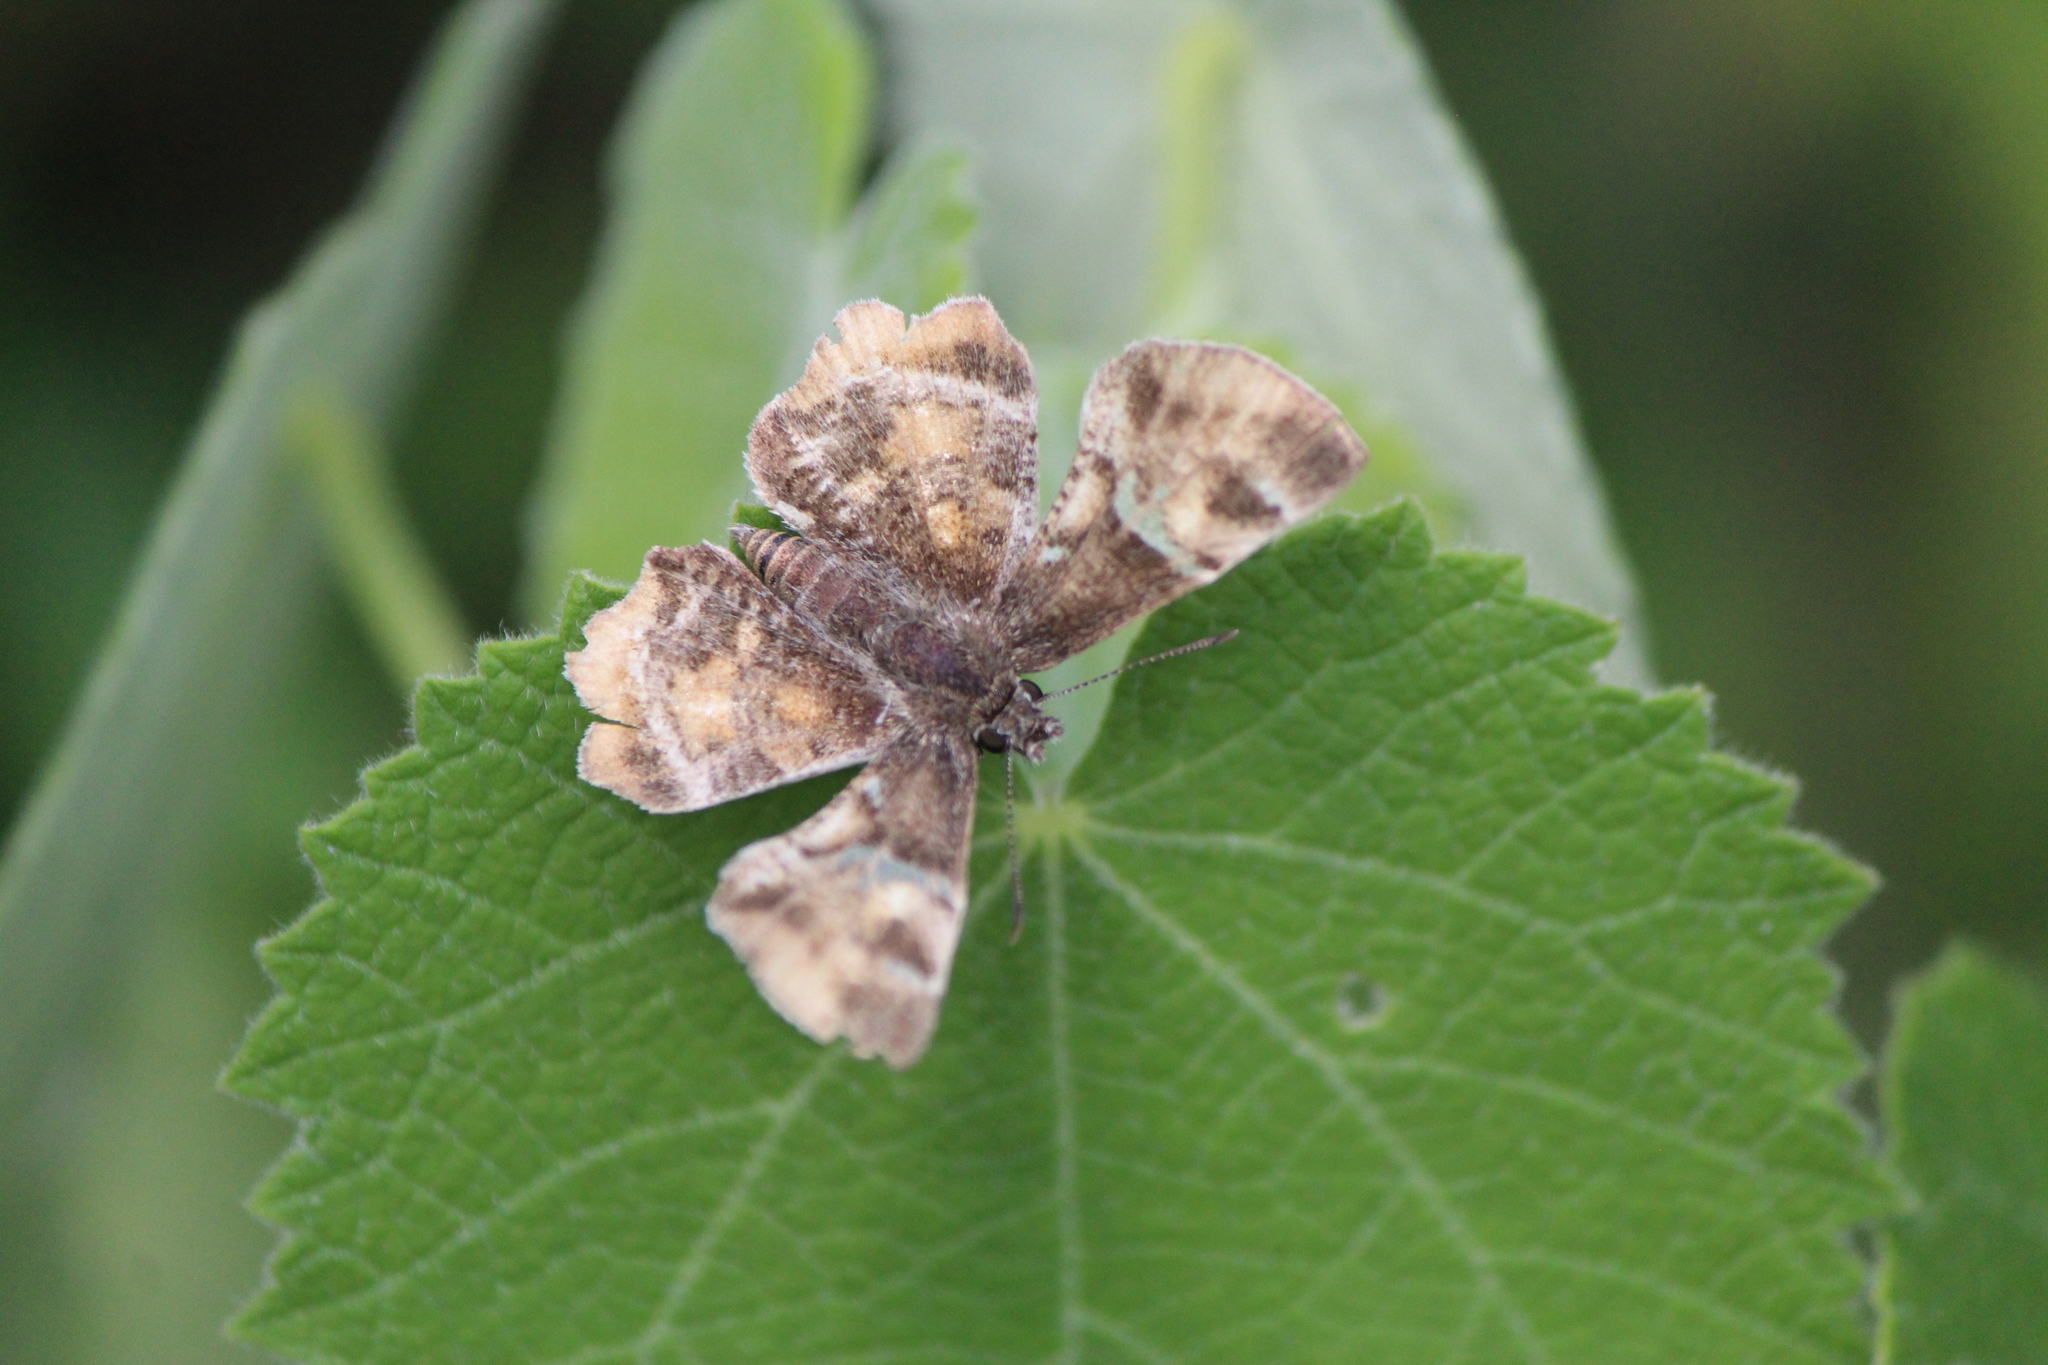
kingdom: Animalia
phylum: Arthropoda
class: Insecta
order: Lepidoptera
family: Hesperiidae
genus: Systasea
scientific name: Systasea pulverulenta
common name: Texas powdered skipper
